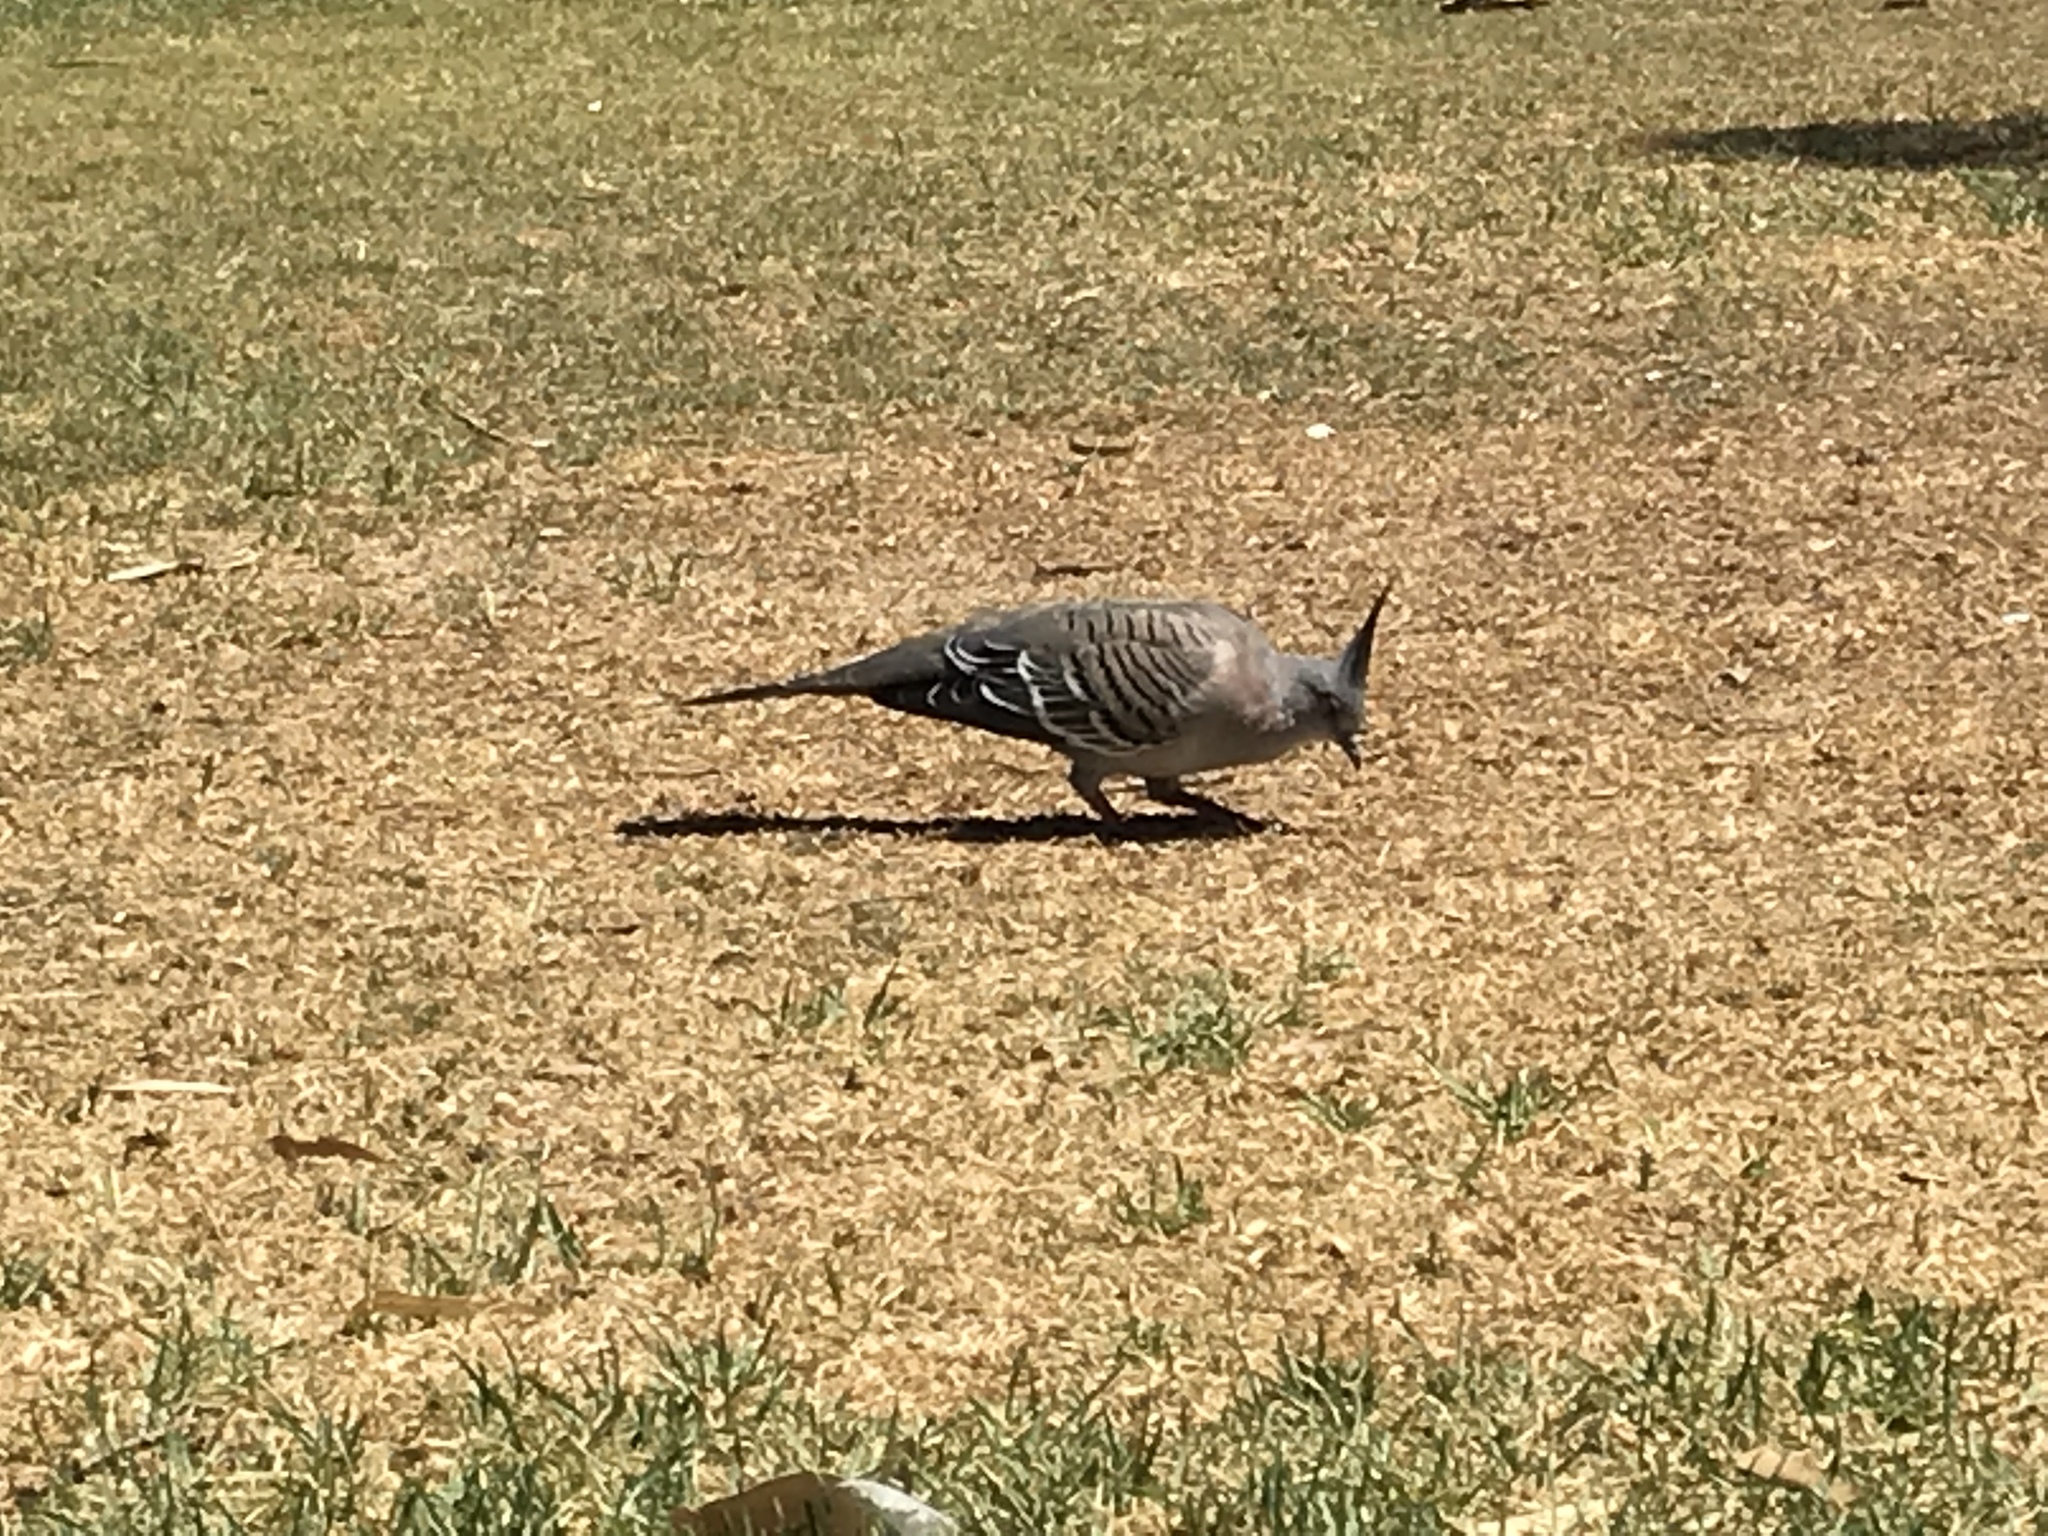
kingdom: Animalia
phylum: Chordata
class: Aves
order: Columbiformes
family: Columbidae
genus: Ocyphaps
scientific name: Ocyphaps lophotes
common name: Crested pigeon
